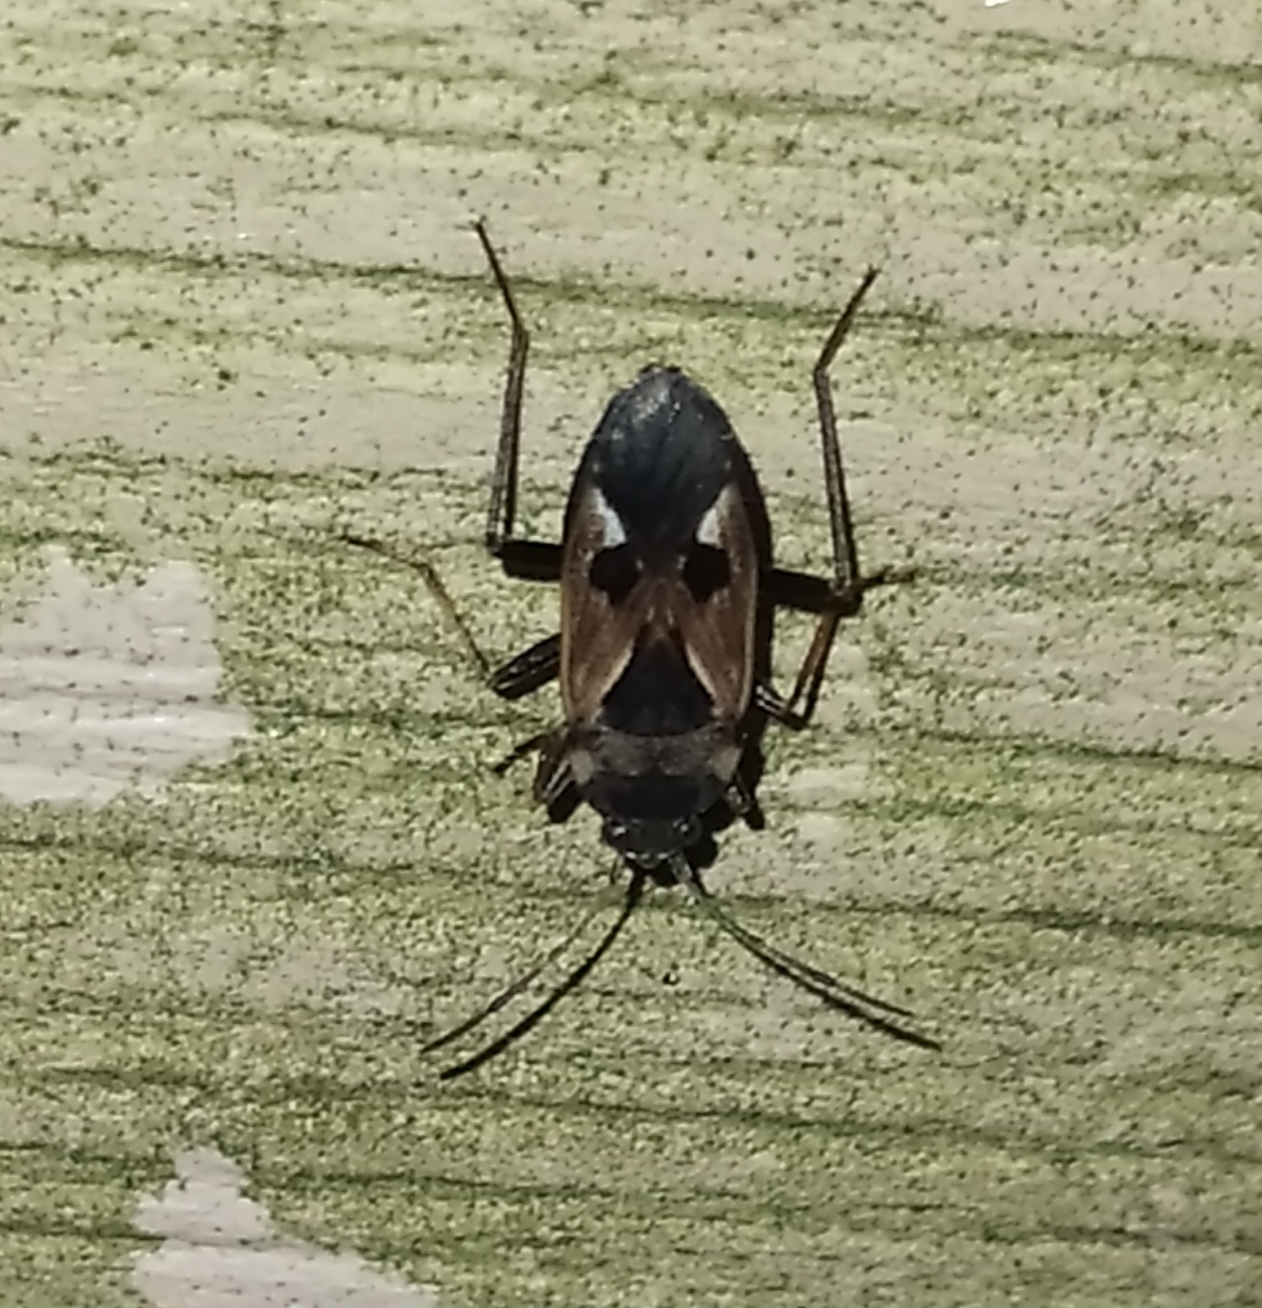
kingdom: Animalia
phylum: Arthropoda
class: Insecta
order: Hemiptera
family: Rhyparochromidae
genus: Rhyparochromus
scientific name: Rhyparochromus vulgaris
